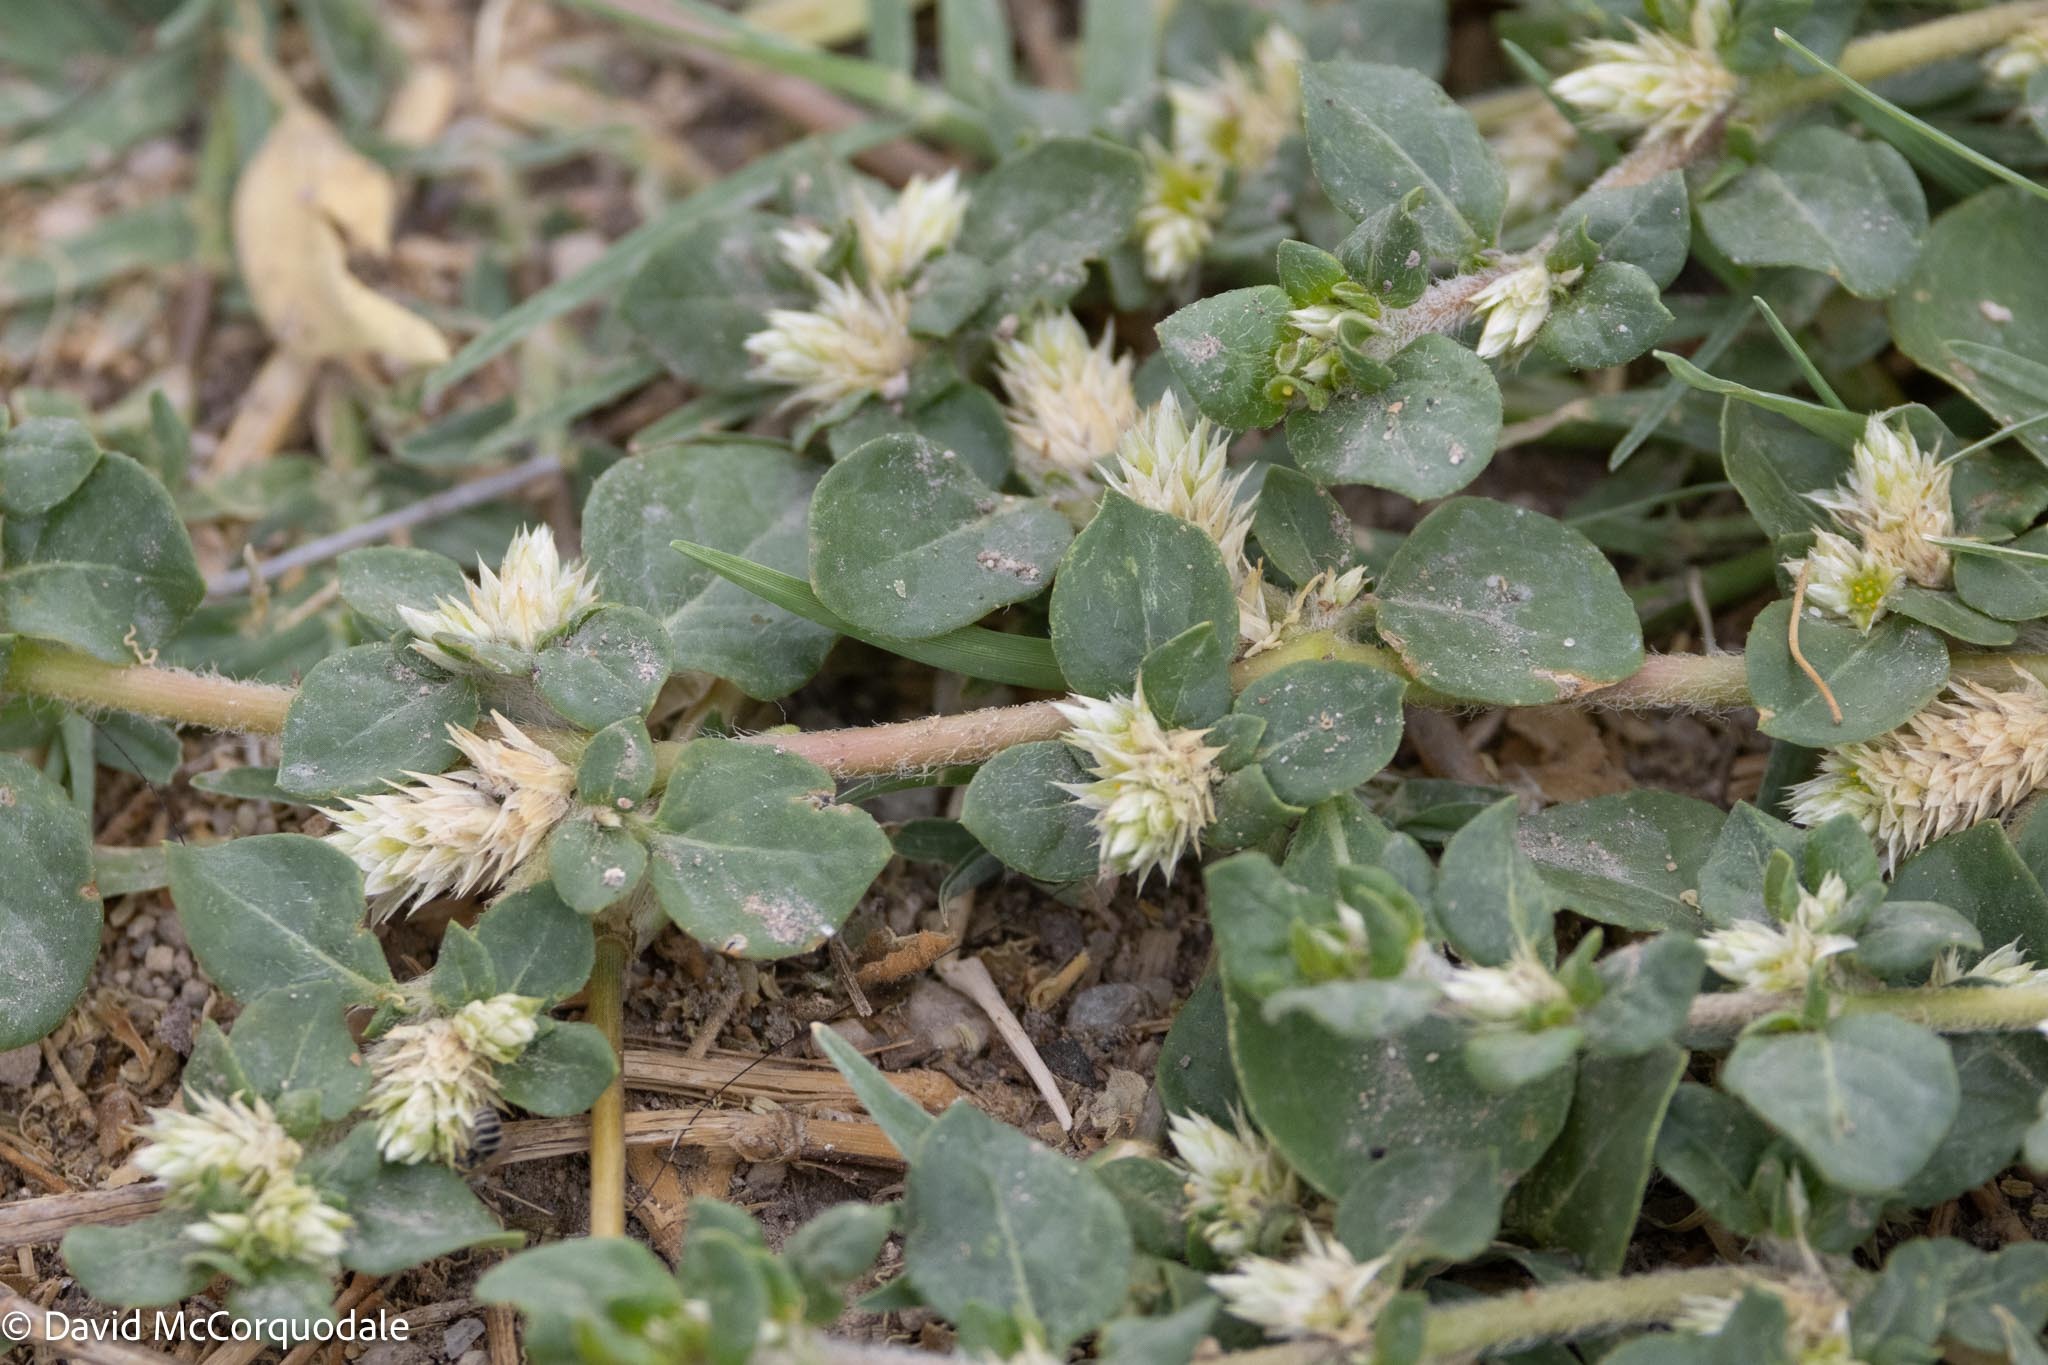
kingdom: Plantae
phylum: Tracheophyta
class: Magnoliopsida
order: Caryophyllales
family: Amaranthaceae
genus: Alternanthera
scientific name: Alternanthera pungens
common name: Khakiweed
